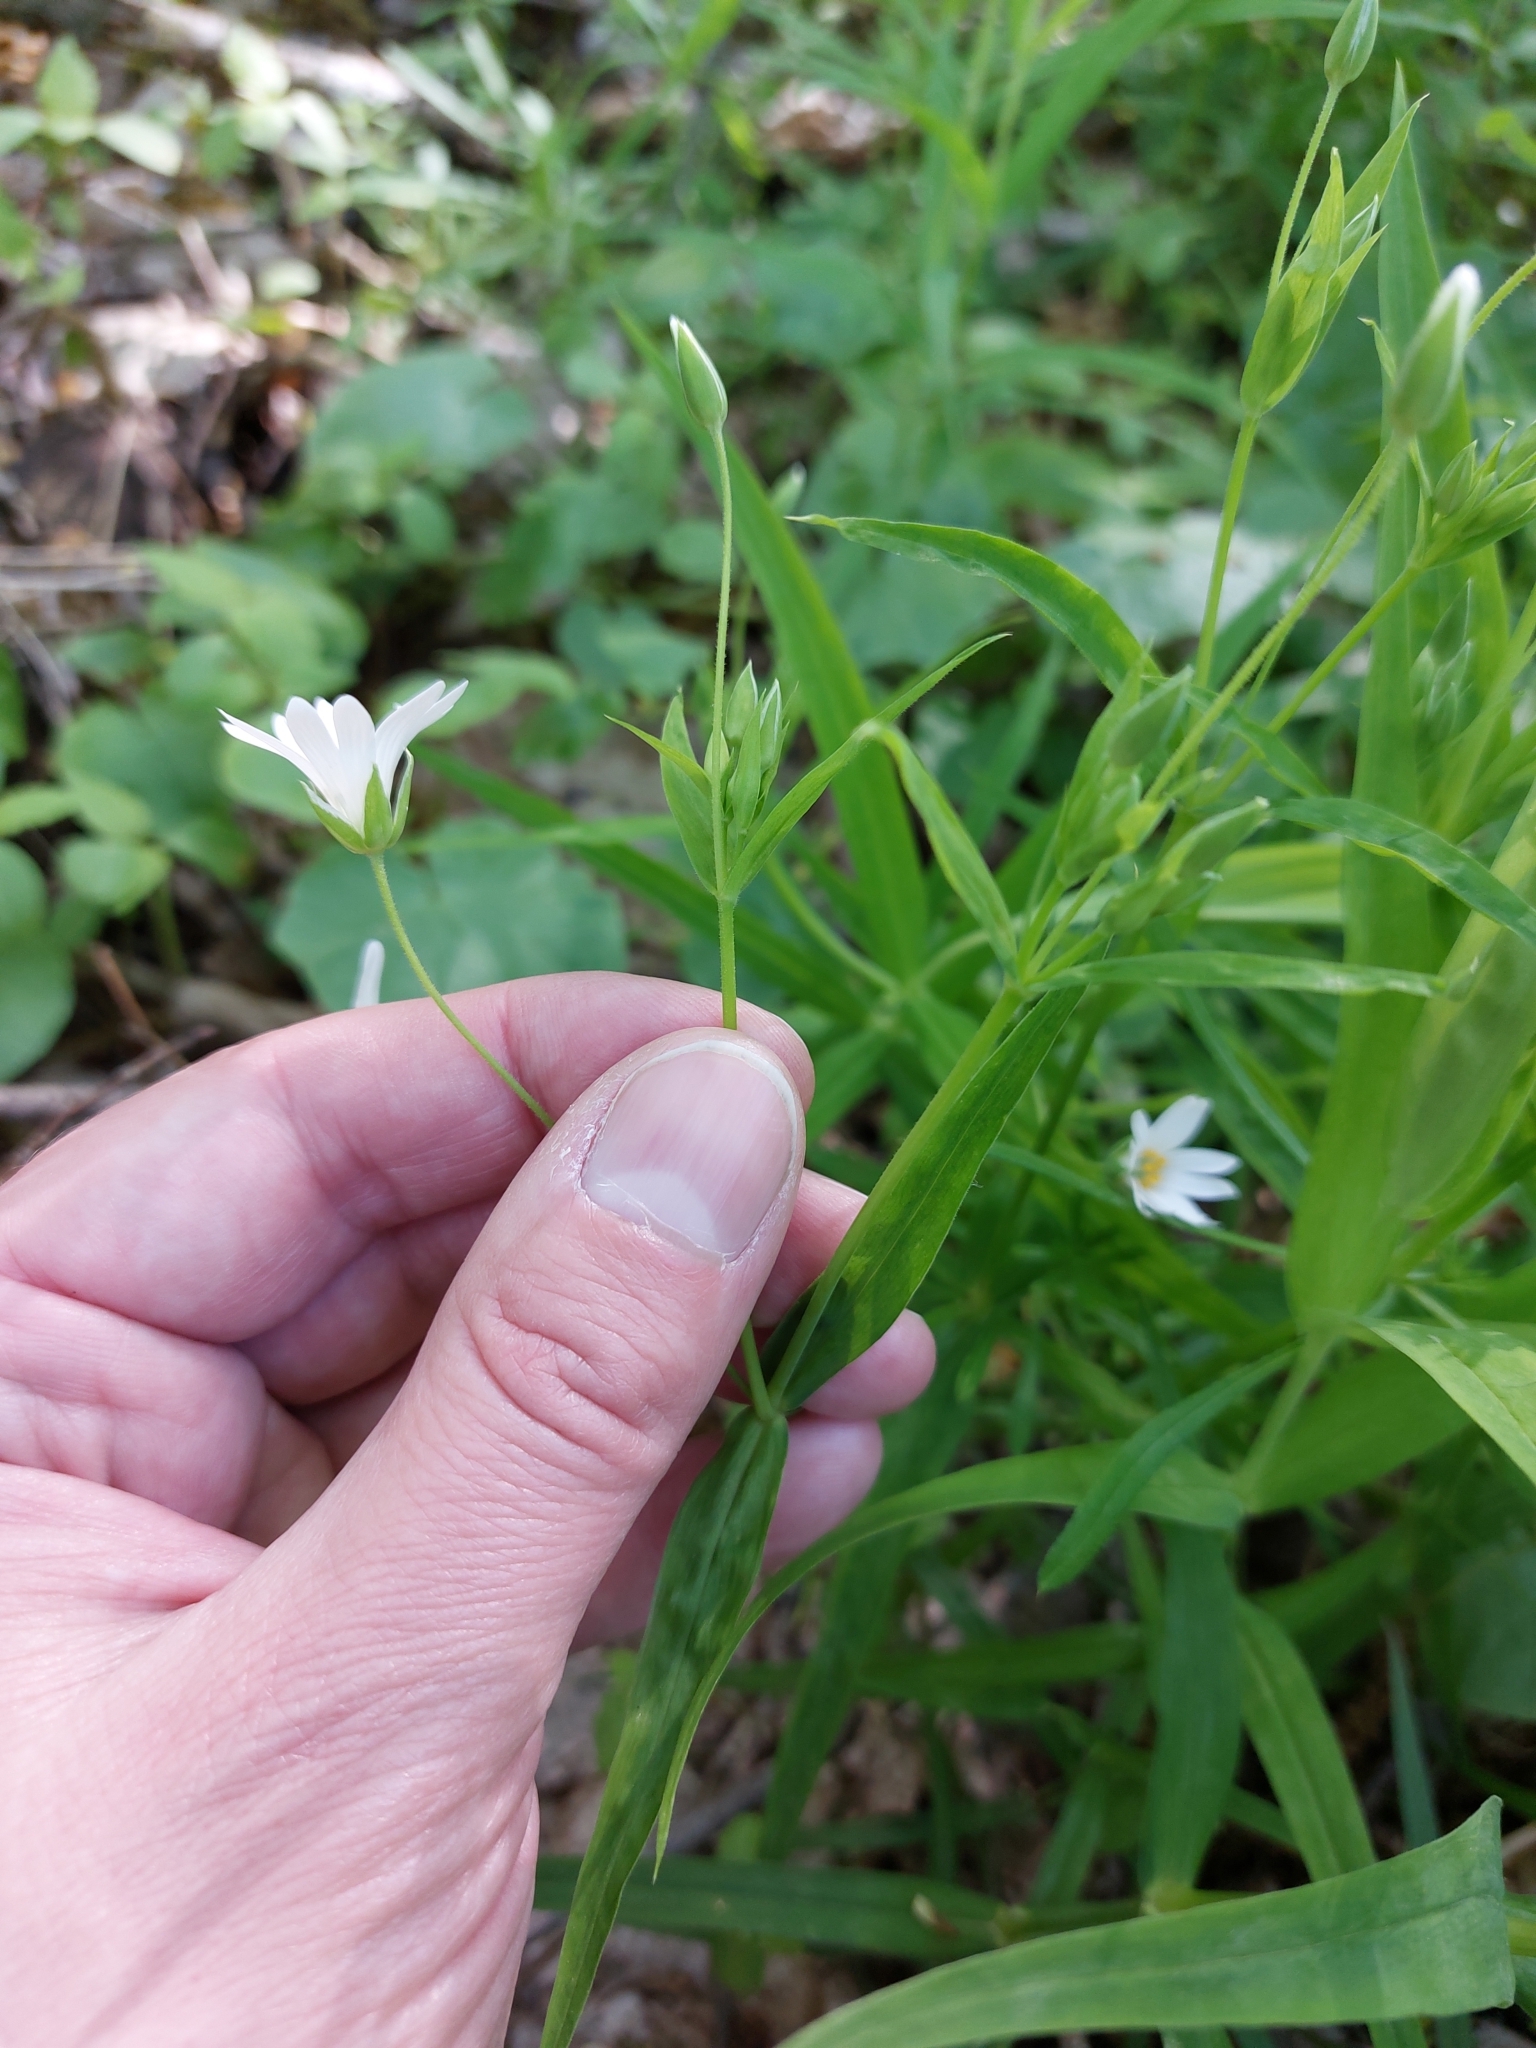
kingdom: Plantae
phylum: Tracheophyta
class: Magnoliopsida
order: Caryophyllales
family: Caryophyllaceae
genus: Rabelera
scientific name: Rabelera holostea
